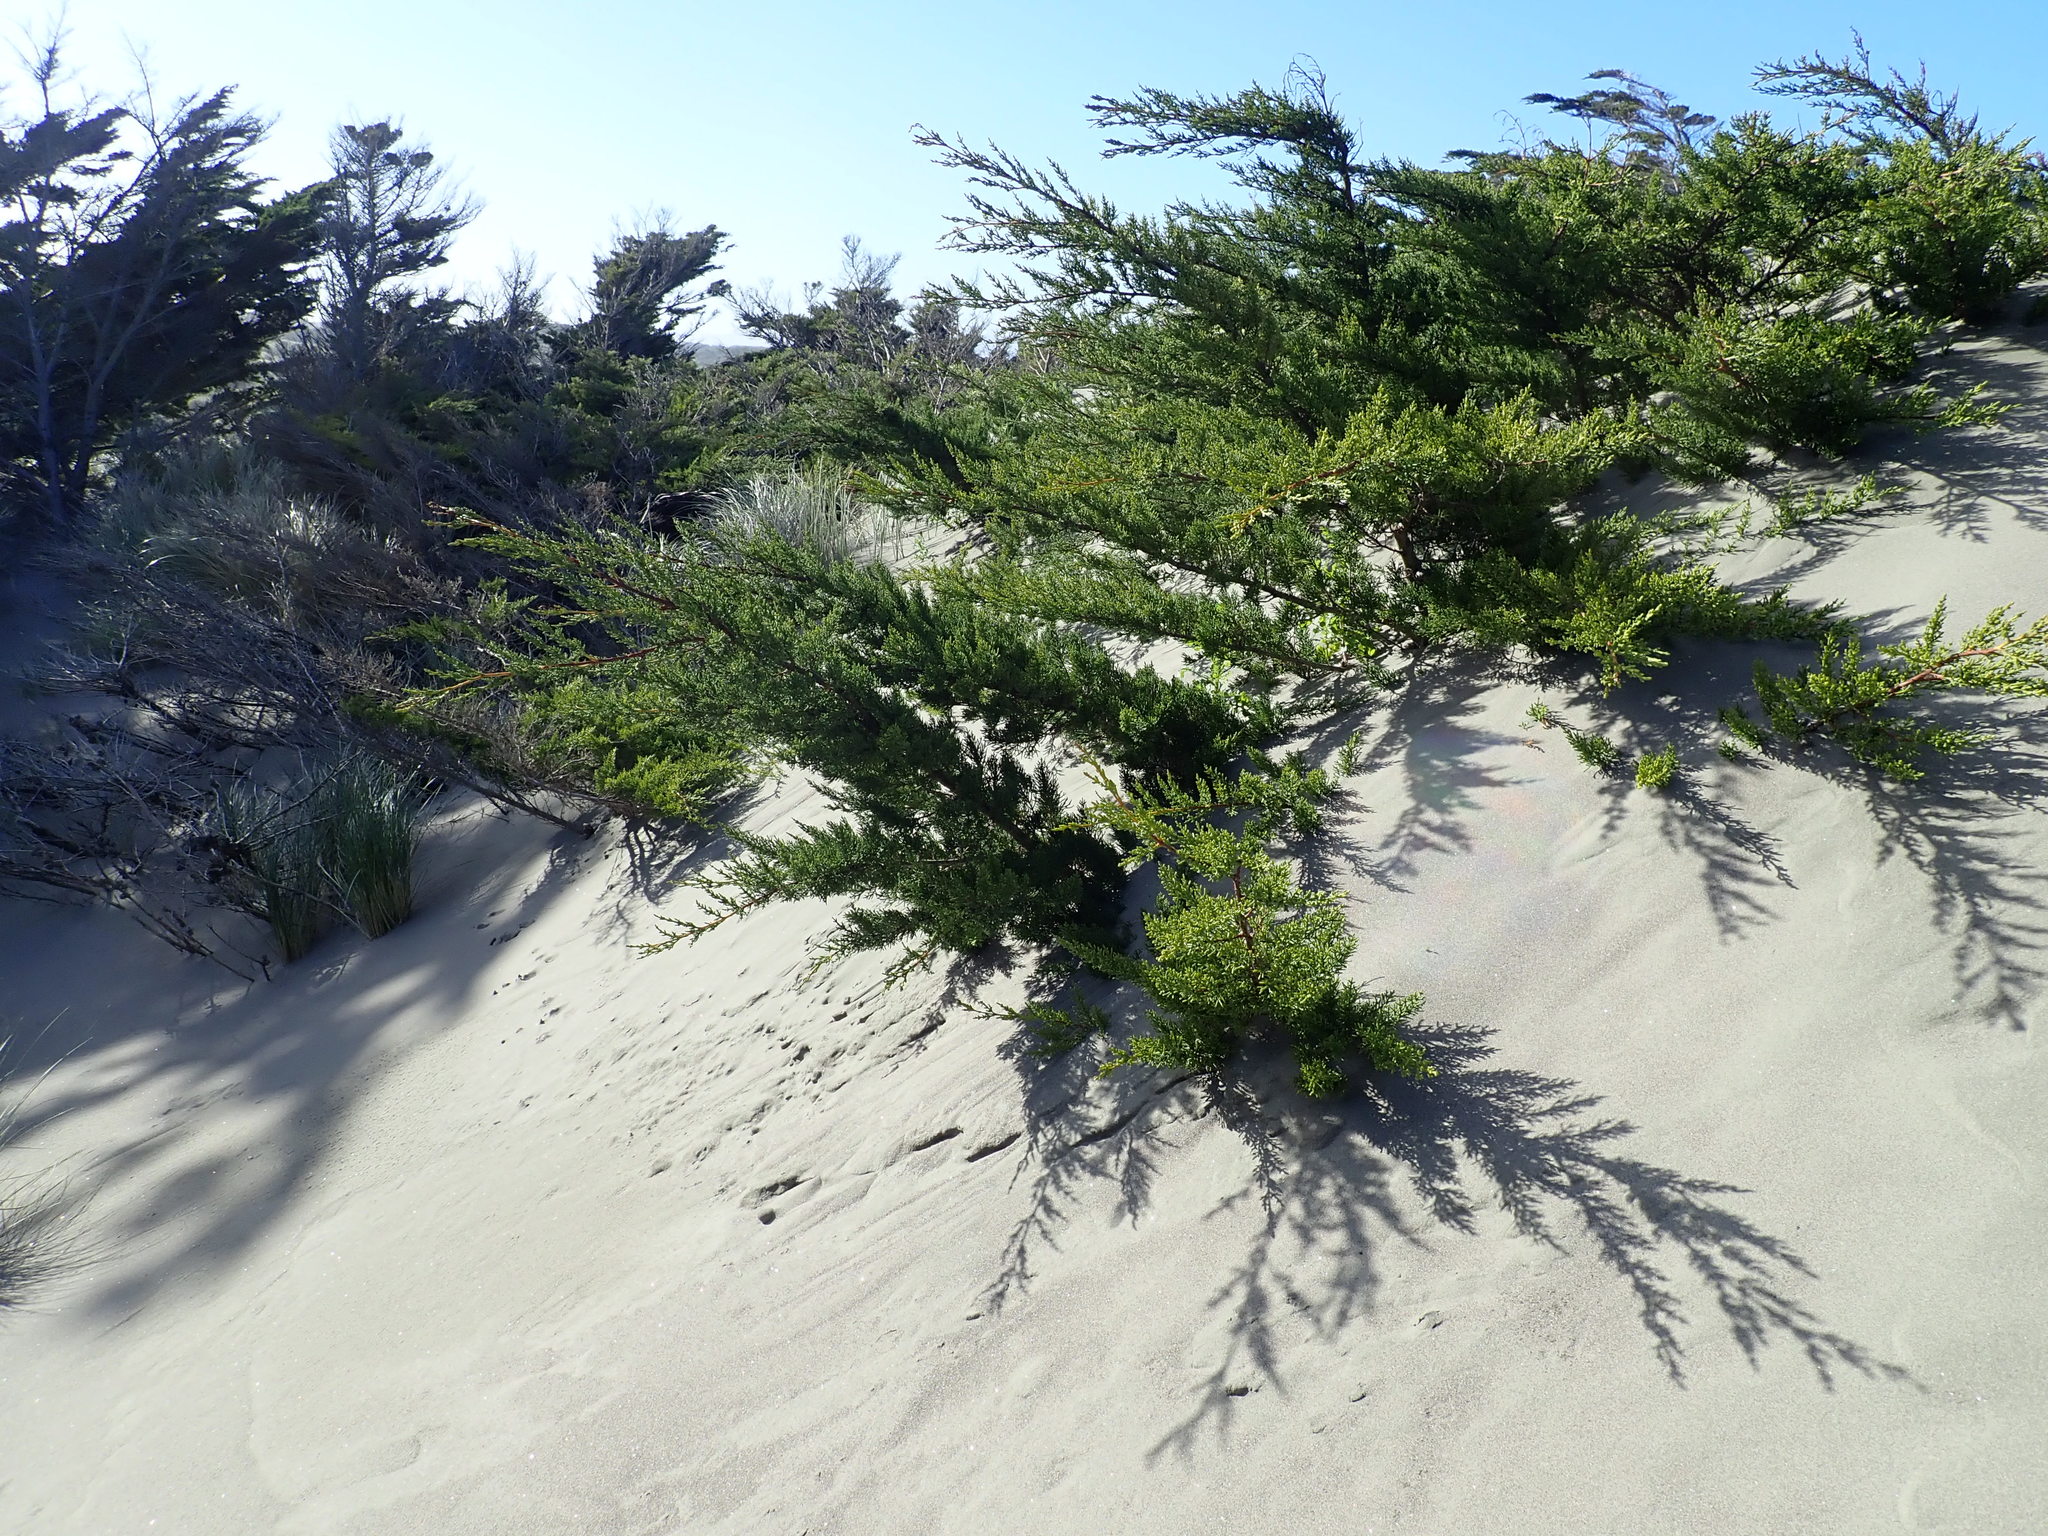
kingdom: Plantae
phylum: Tracheophyta
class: Pinopsida
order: Pinales
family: Cupressaceae
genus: Cupressus
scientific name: Cupressus macrocarpa
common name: Monterey cypress
